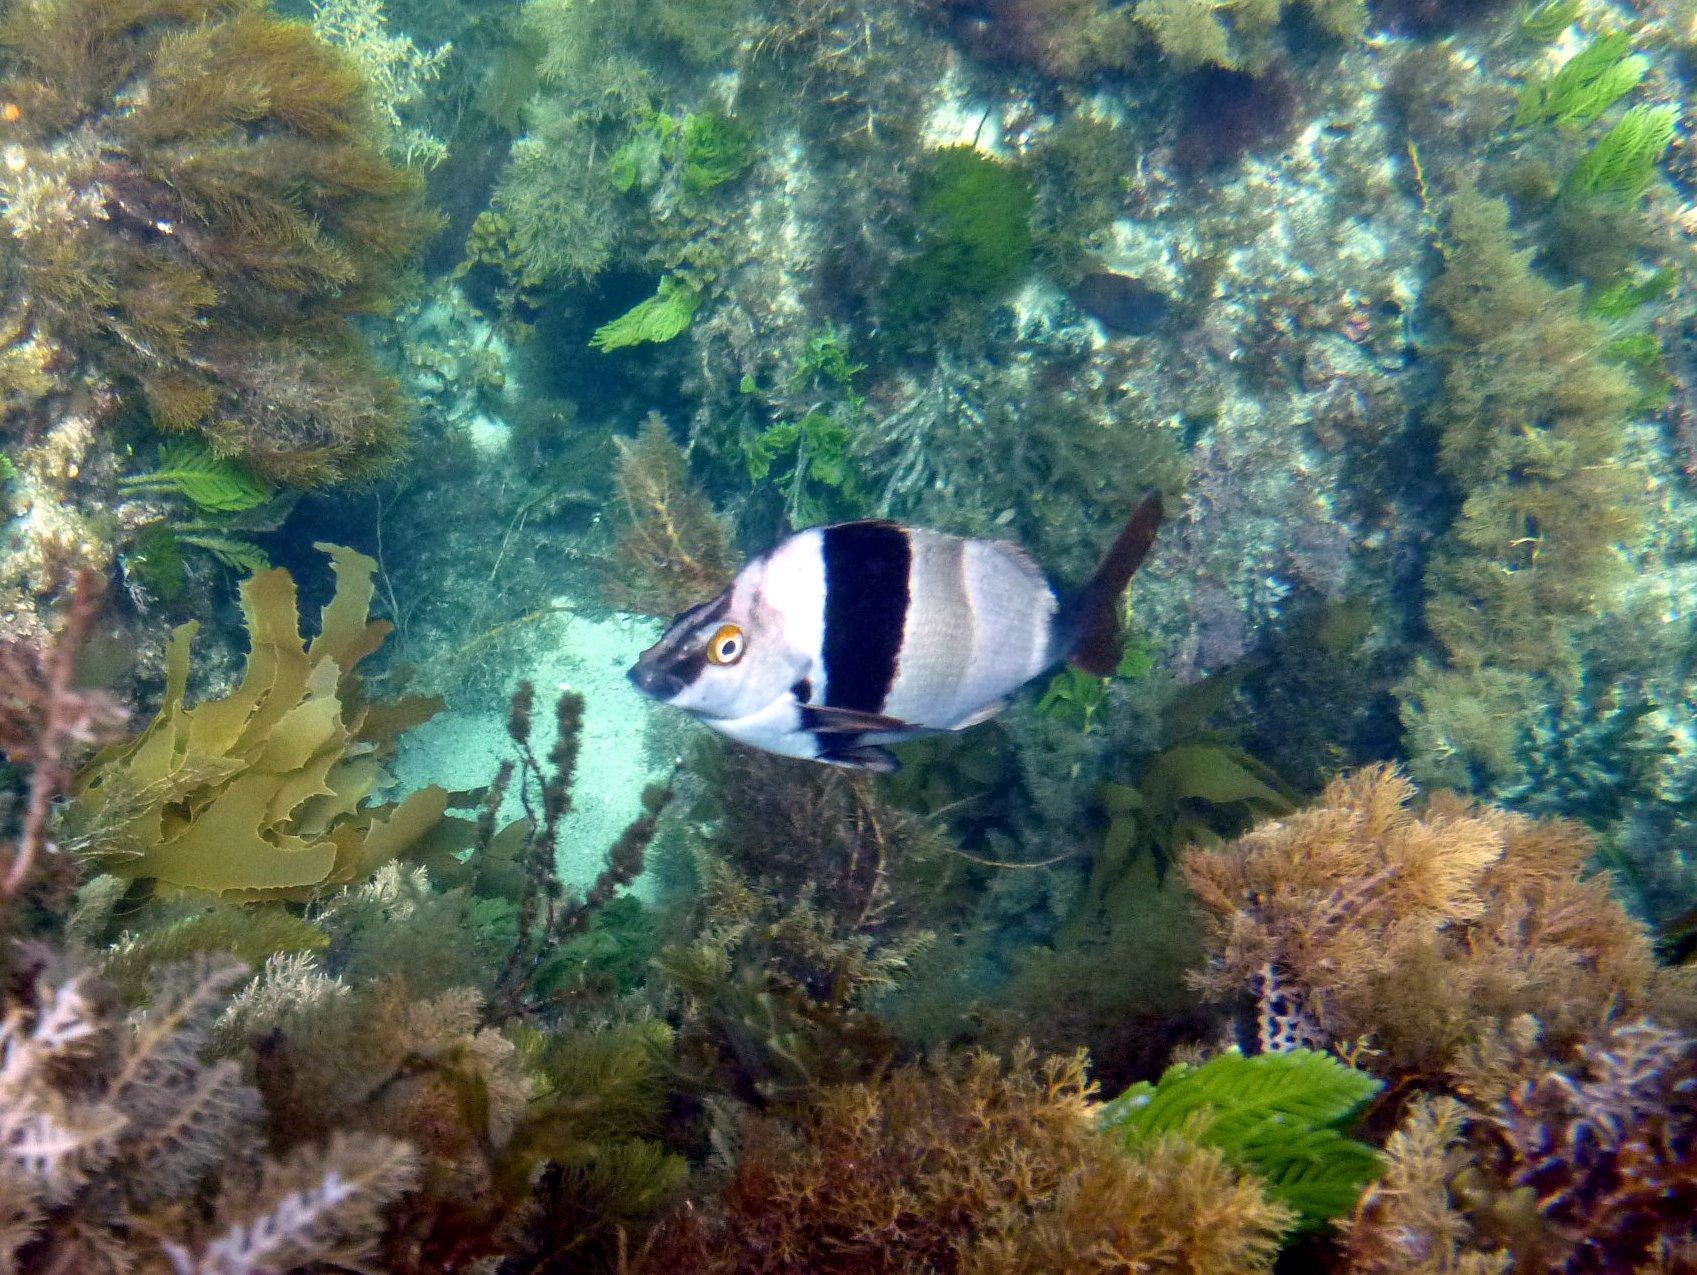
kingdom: Animalia
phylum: Chordata
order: Perciformes
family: Latridae
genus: Pseudogoniistius
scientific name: Pseudogoniistius nigripes
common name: Black-striped morwong
